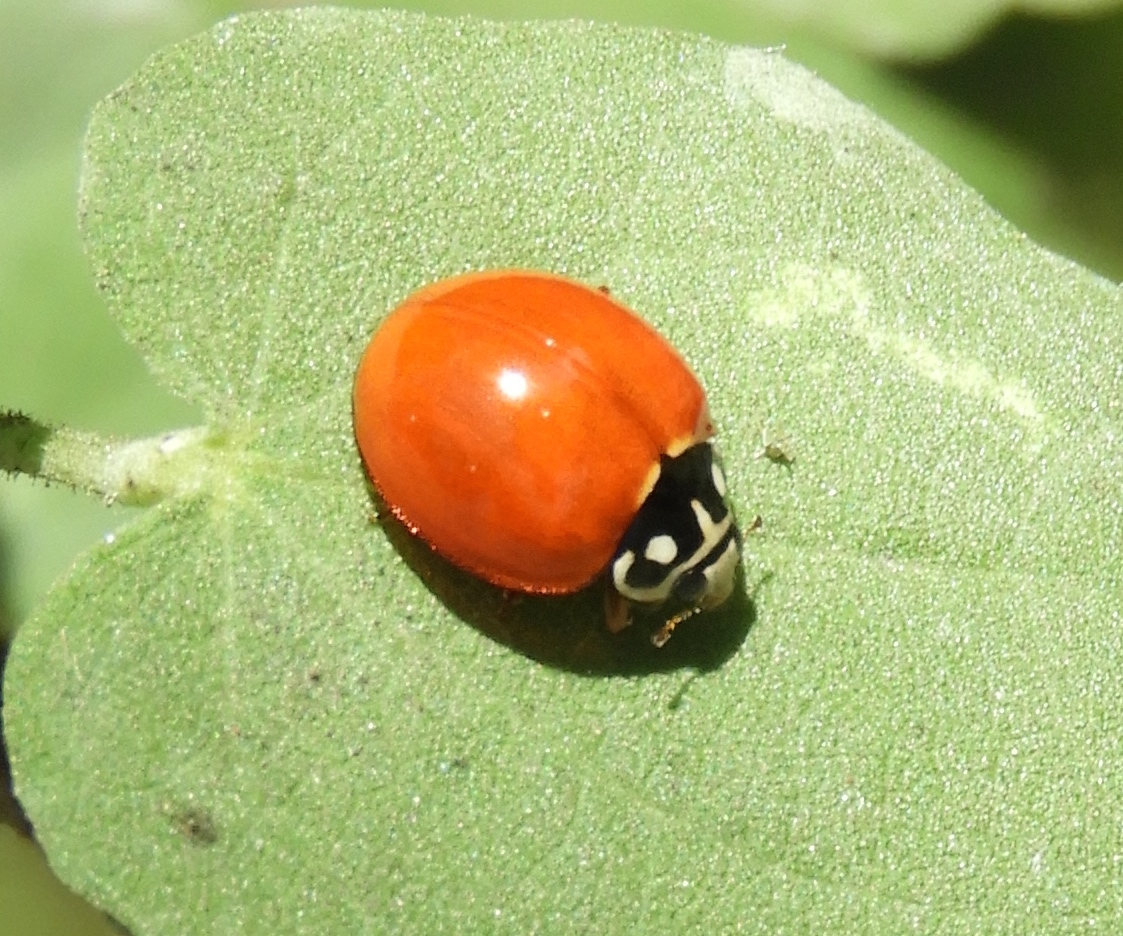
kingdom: Animalia
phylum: Arthropoda
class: Insecta
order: Coleoptera
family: Coccinellidae
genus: Cycloneda
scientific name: Cycloneda
